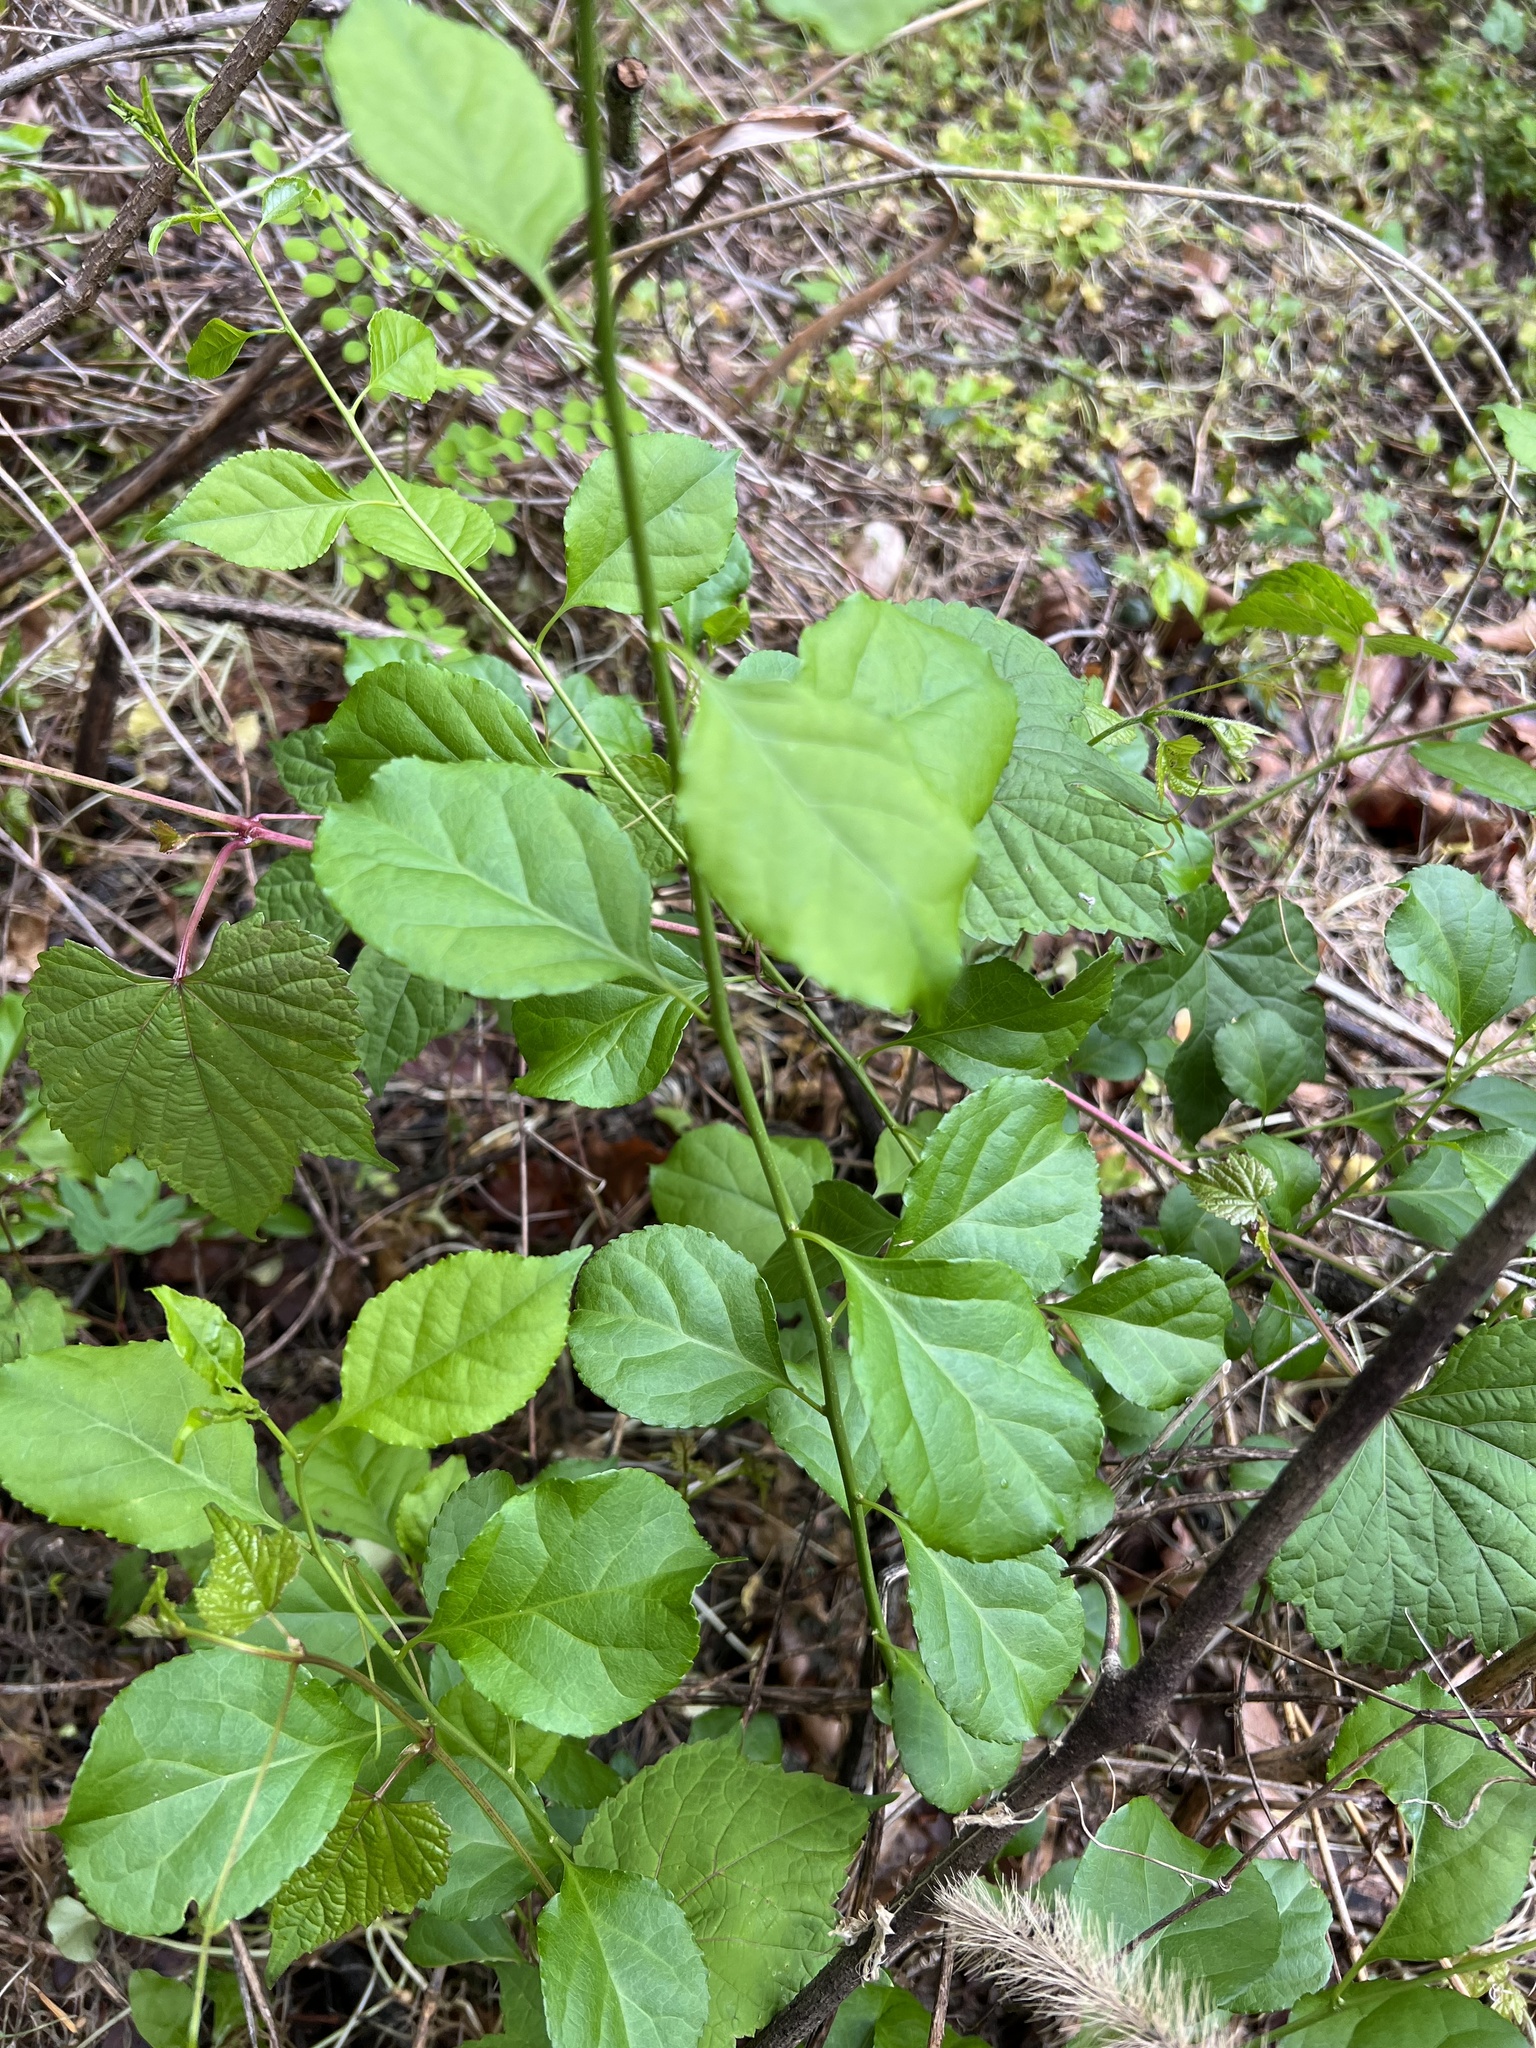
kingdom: Plantae
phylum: Tracheophyta
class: Magnoliopsida
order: Celastrales
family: Celastraceae
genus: Celastrus
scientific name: Celastrus orbiculatus
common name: Oriental bittersweet
